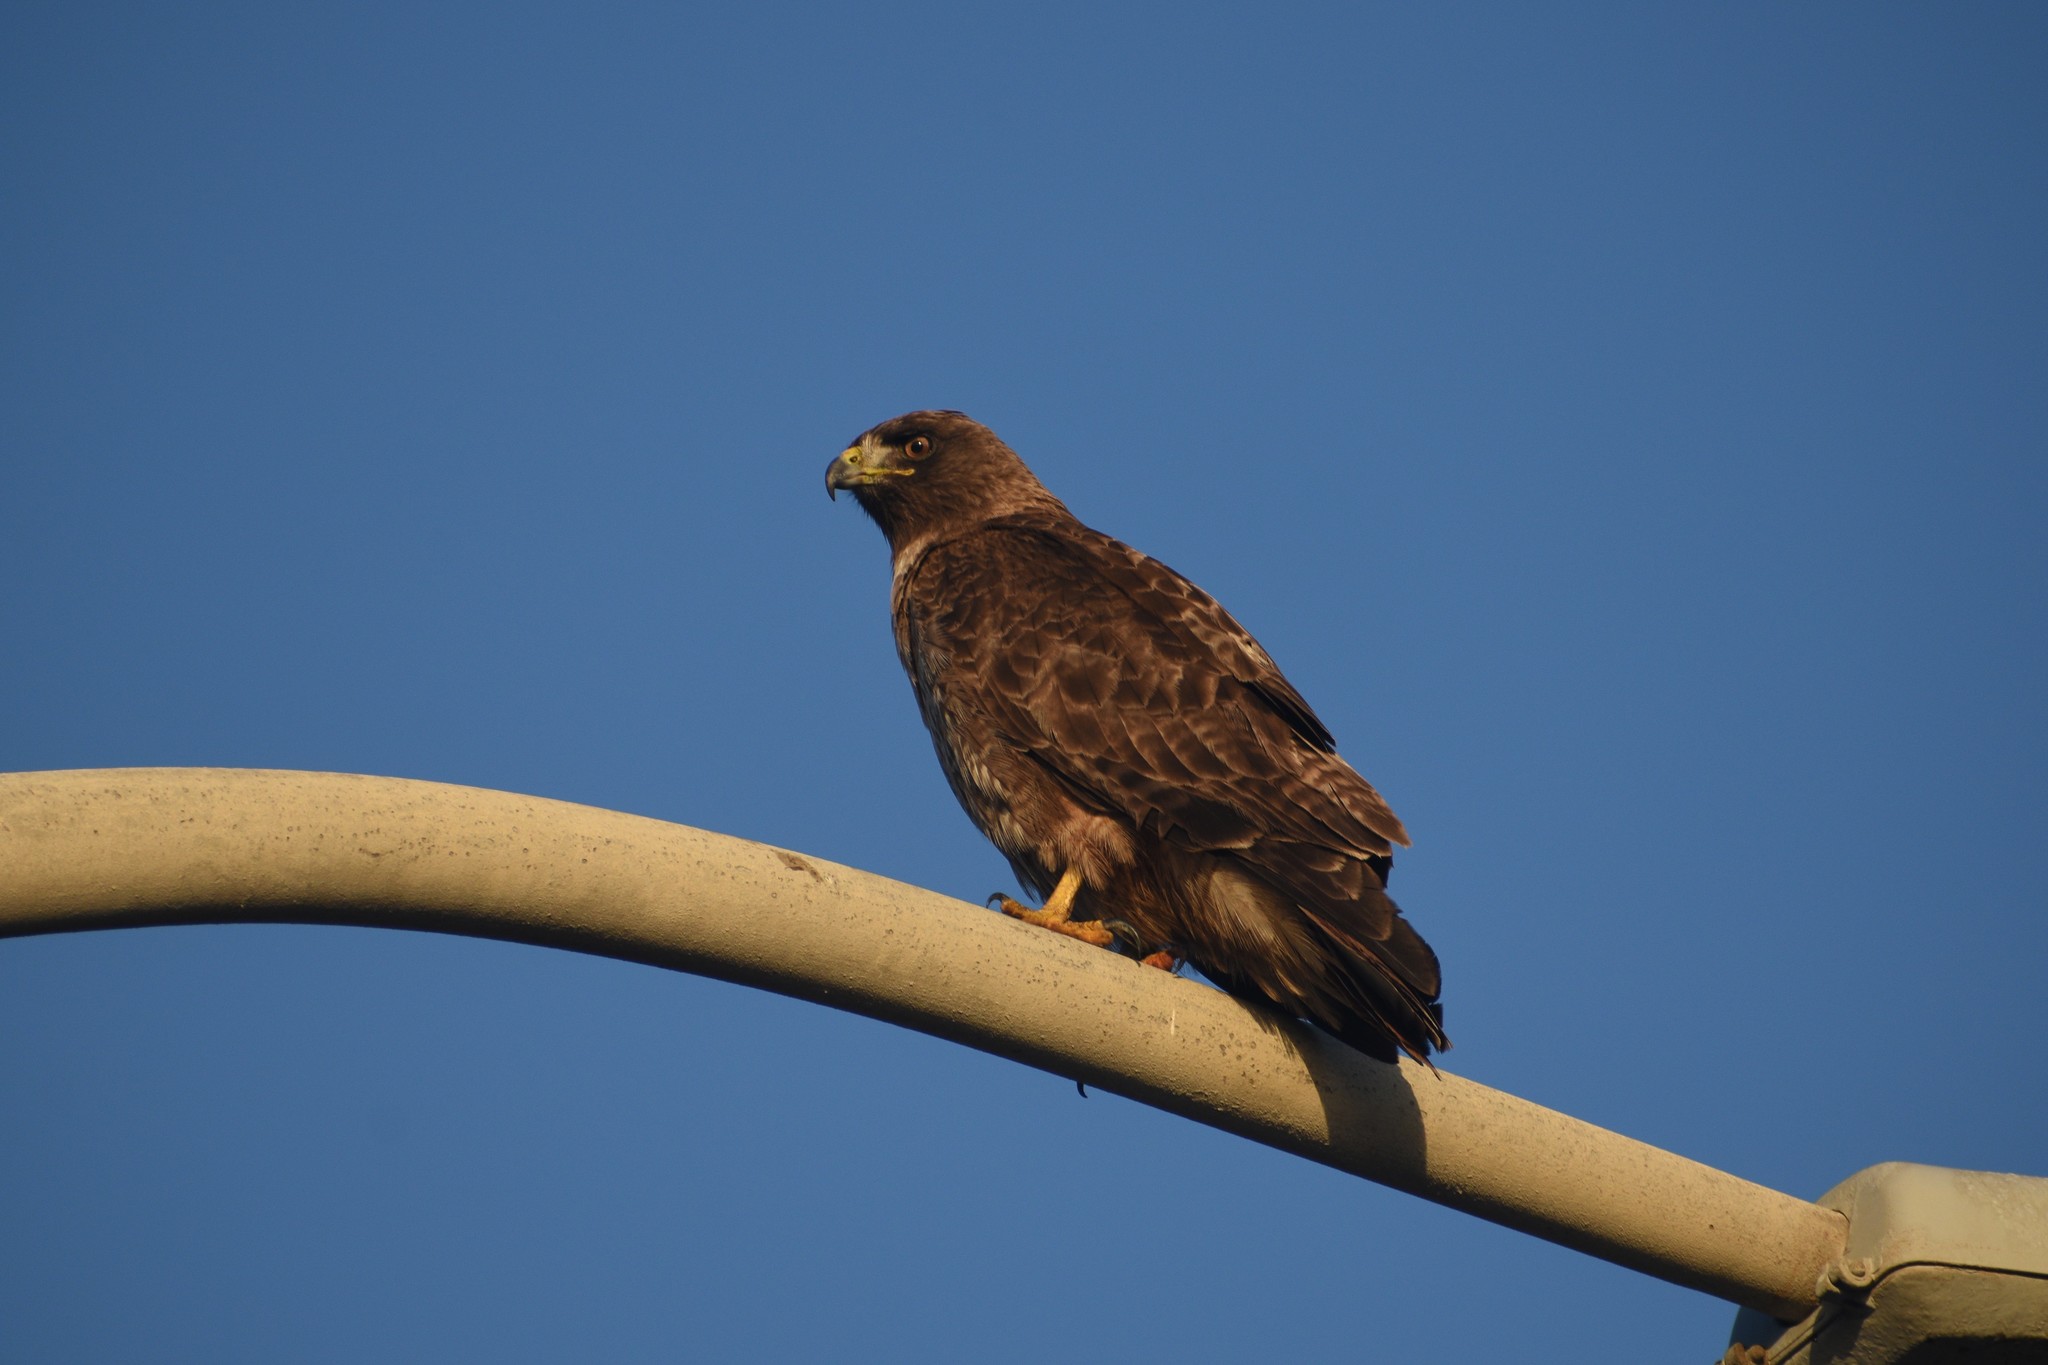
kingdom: Animalia
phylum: Chordata
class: Aves
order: Accipitriformes
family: Accipitridae
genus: Buteo
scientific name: Buteo jamaicensis
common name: Red-tailed hawk
